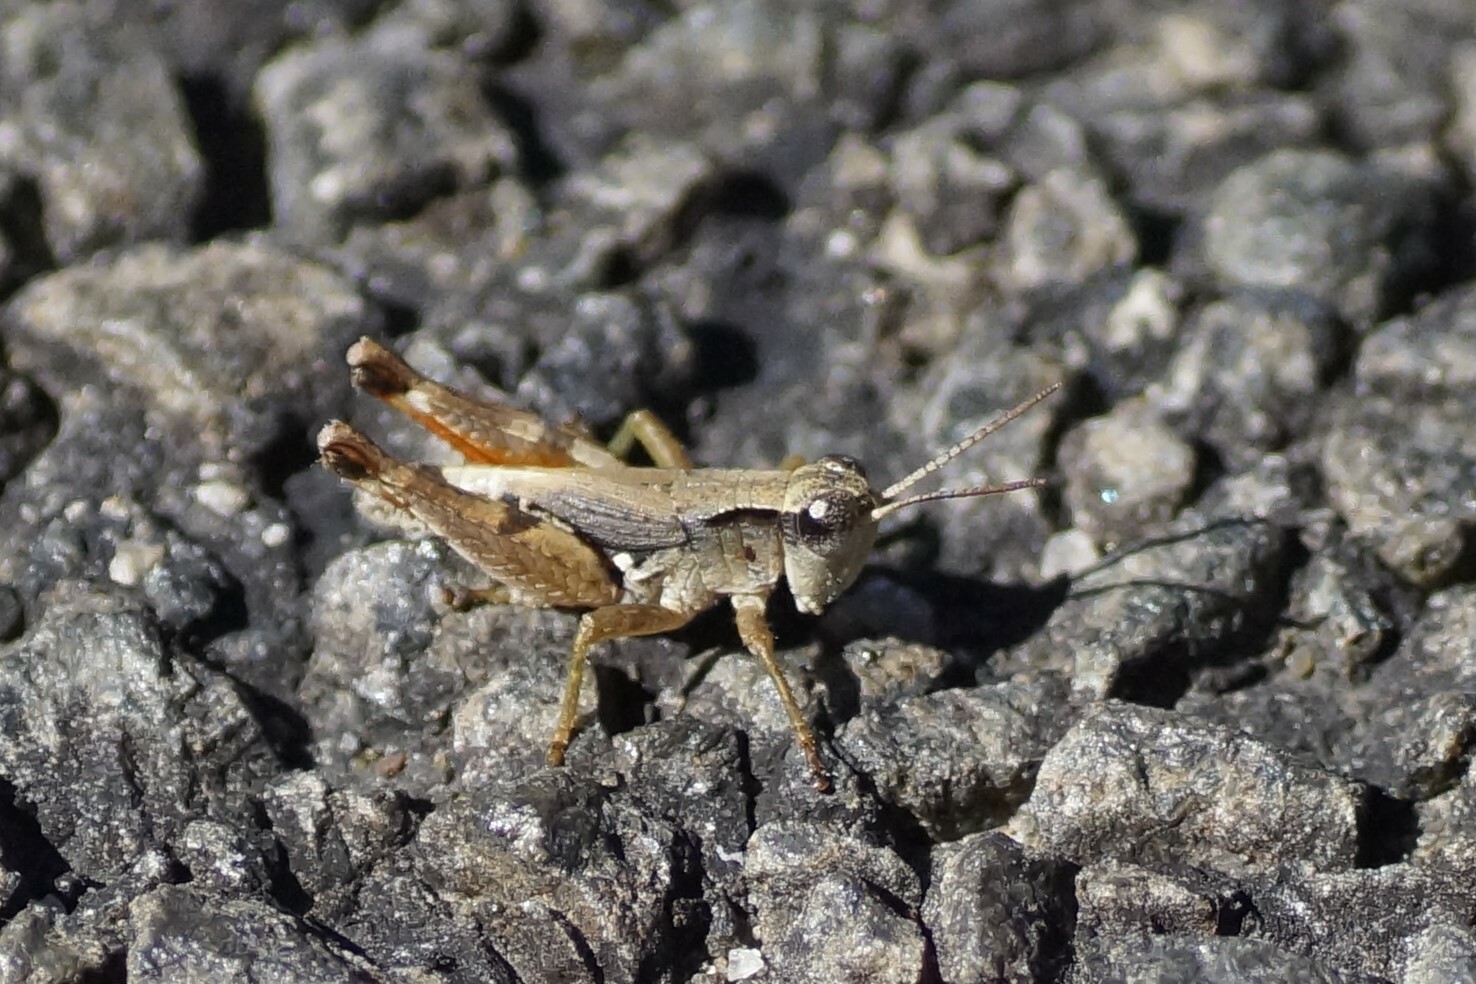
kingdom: Animalia
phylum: Arthropoda
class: Insecta
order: Orthoptera
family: Acrididae
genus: Phaulacridium
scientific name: Phaulacridium vittatum
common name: Wingless grasshopper
